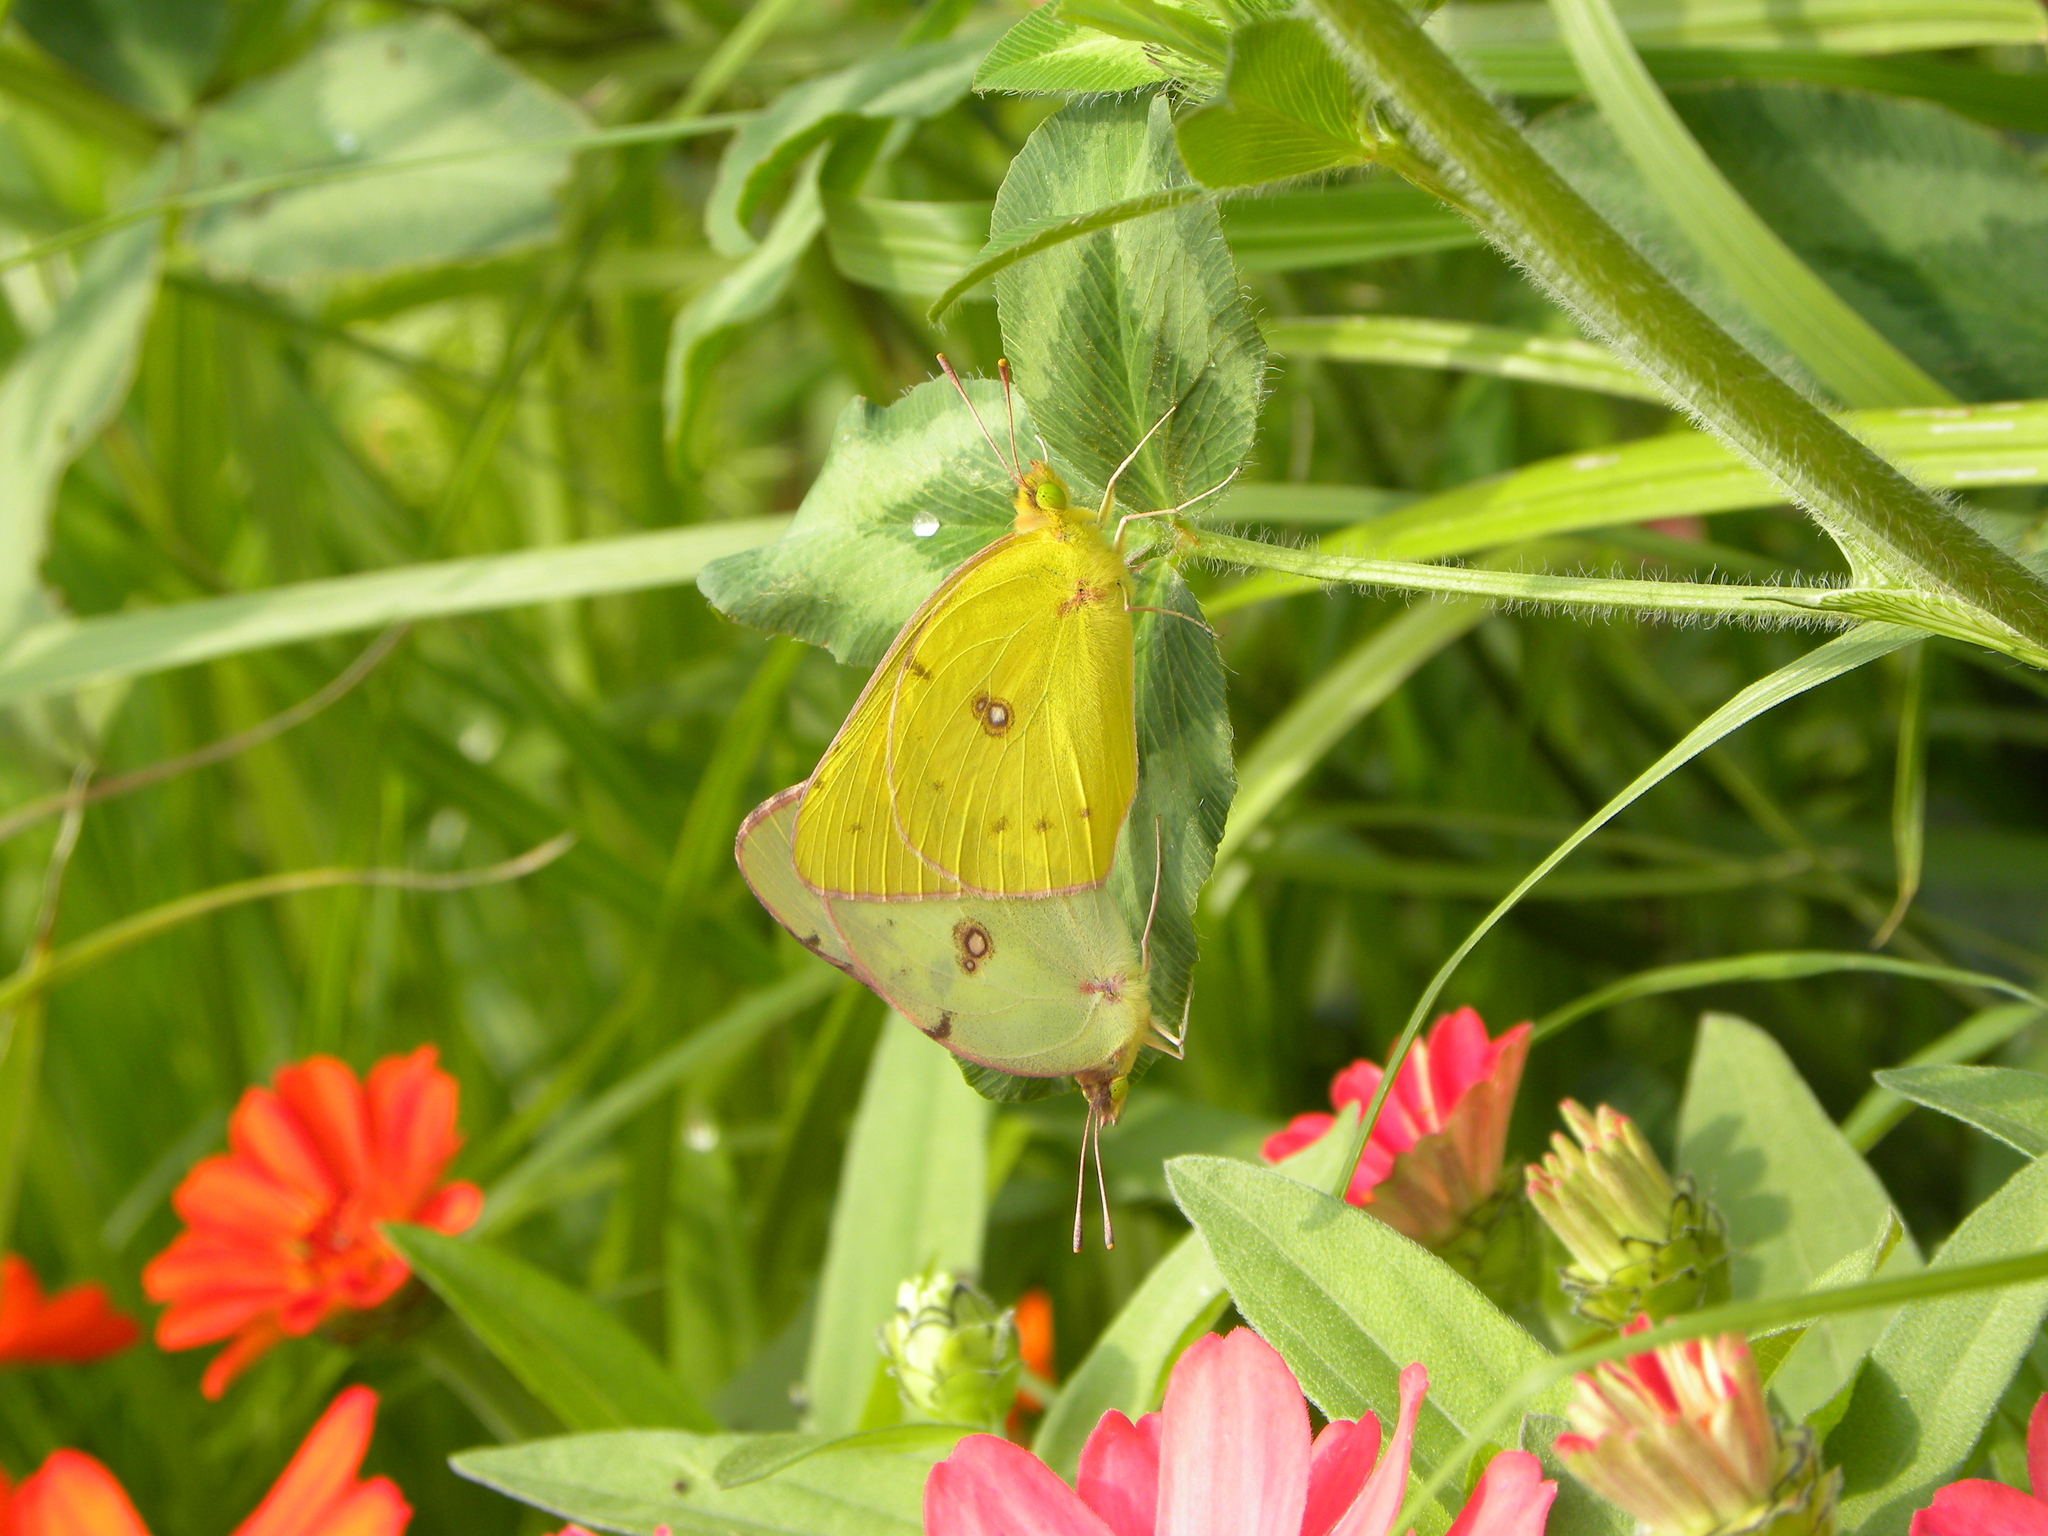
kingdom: Animalia
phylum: Arthropoda
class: Insecta
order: Lepidoptera
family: Pieridae
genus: Colias
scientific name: Colias philodice
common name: Clouded sulphur
